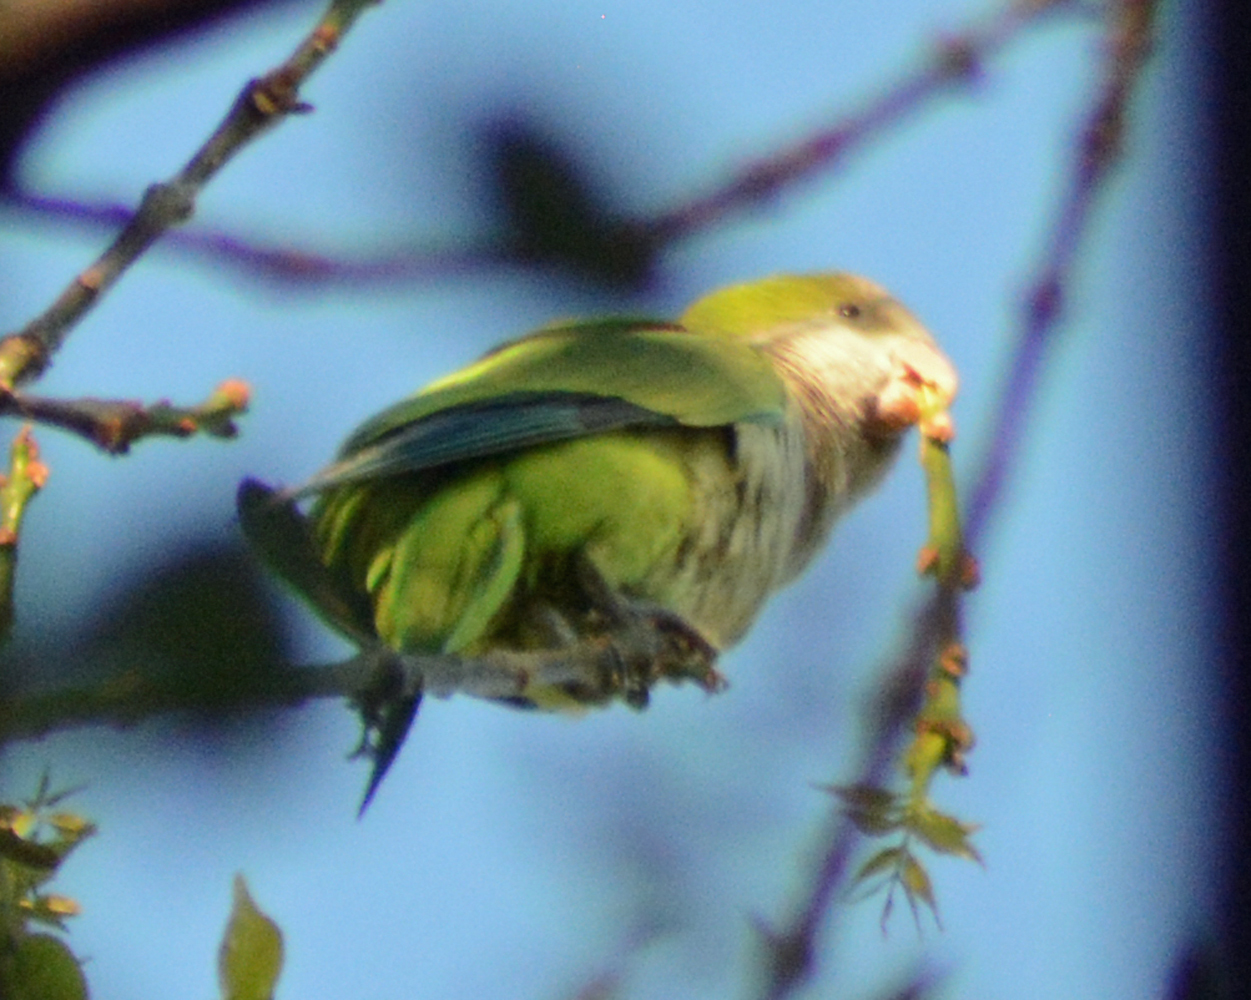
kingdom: Animalia
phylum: Chordata
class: Aves
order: Psittaciformes
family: Psittacidae
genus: Myiopsitta
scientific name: Myiopsitta monachus
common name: Monk parakeet
